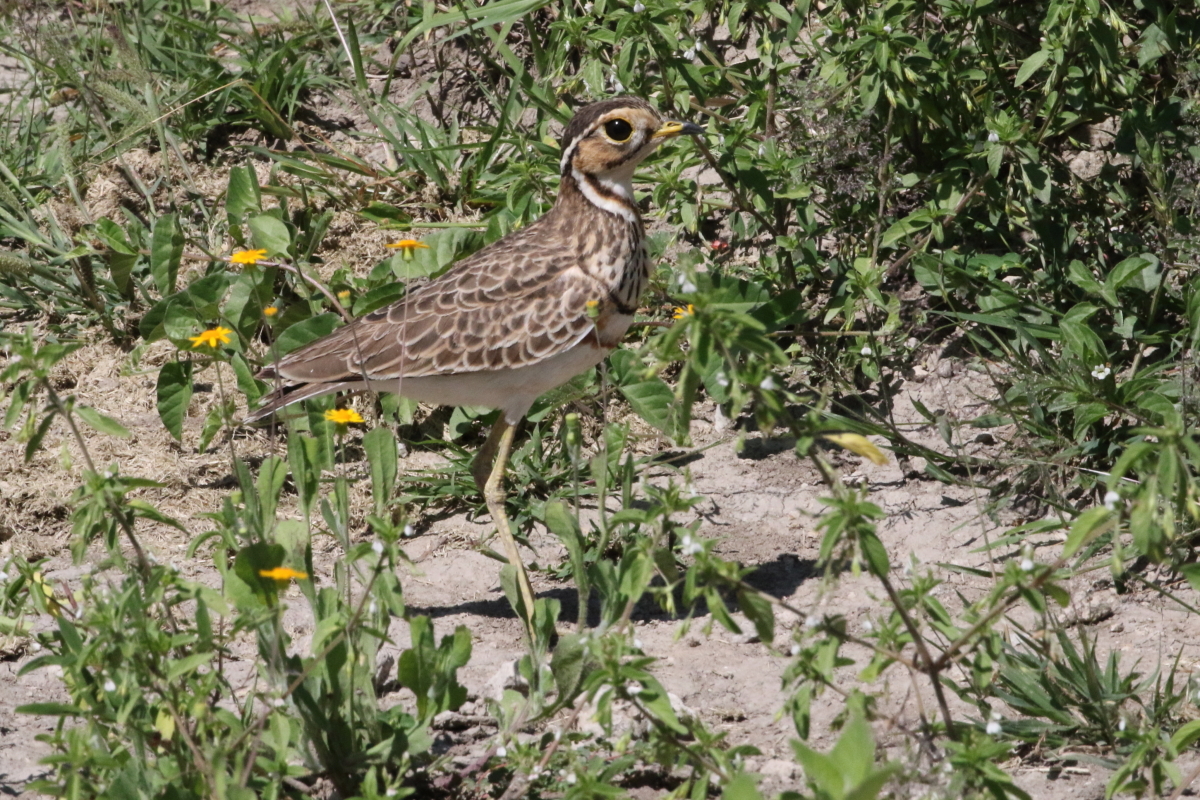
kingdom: Animalia
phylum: Chordata
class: Aves
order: Charadriiformes
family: Glareolidae
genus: Rhinoptilus
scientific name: Rhinoptilus cinctus
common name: Three-banded courser
